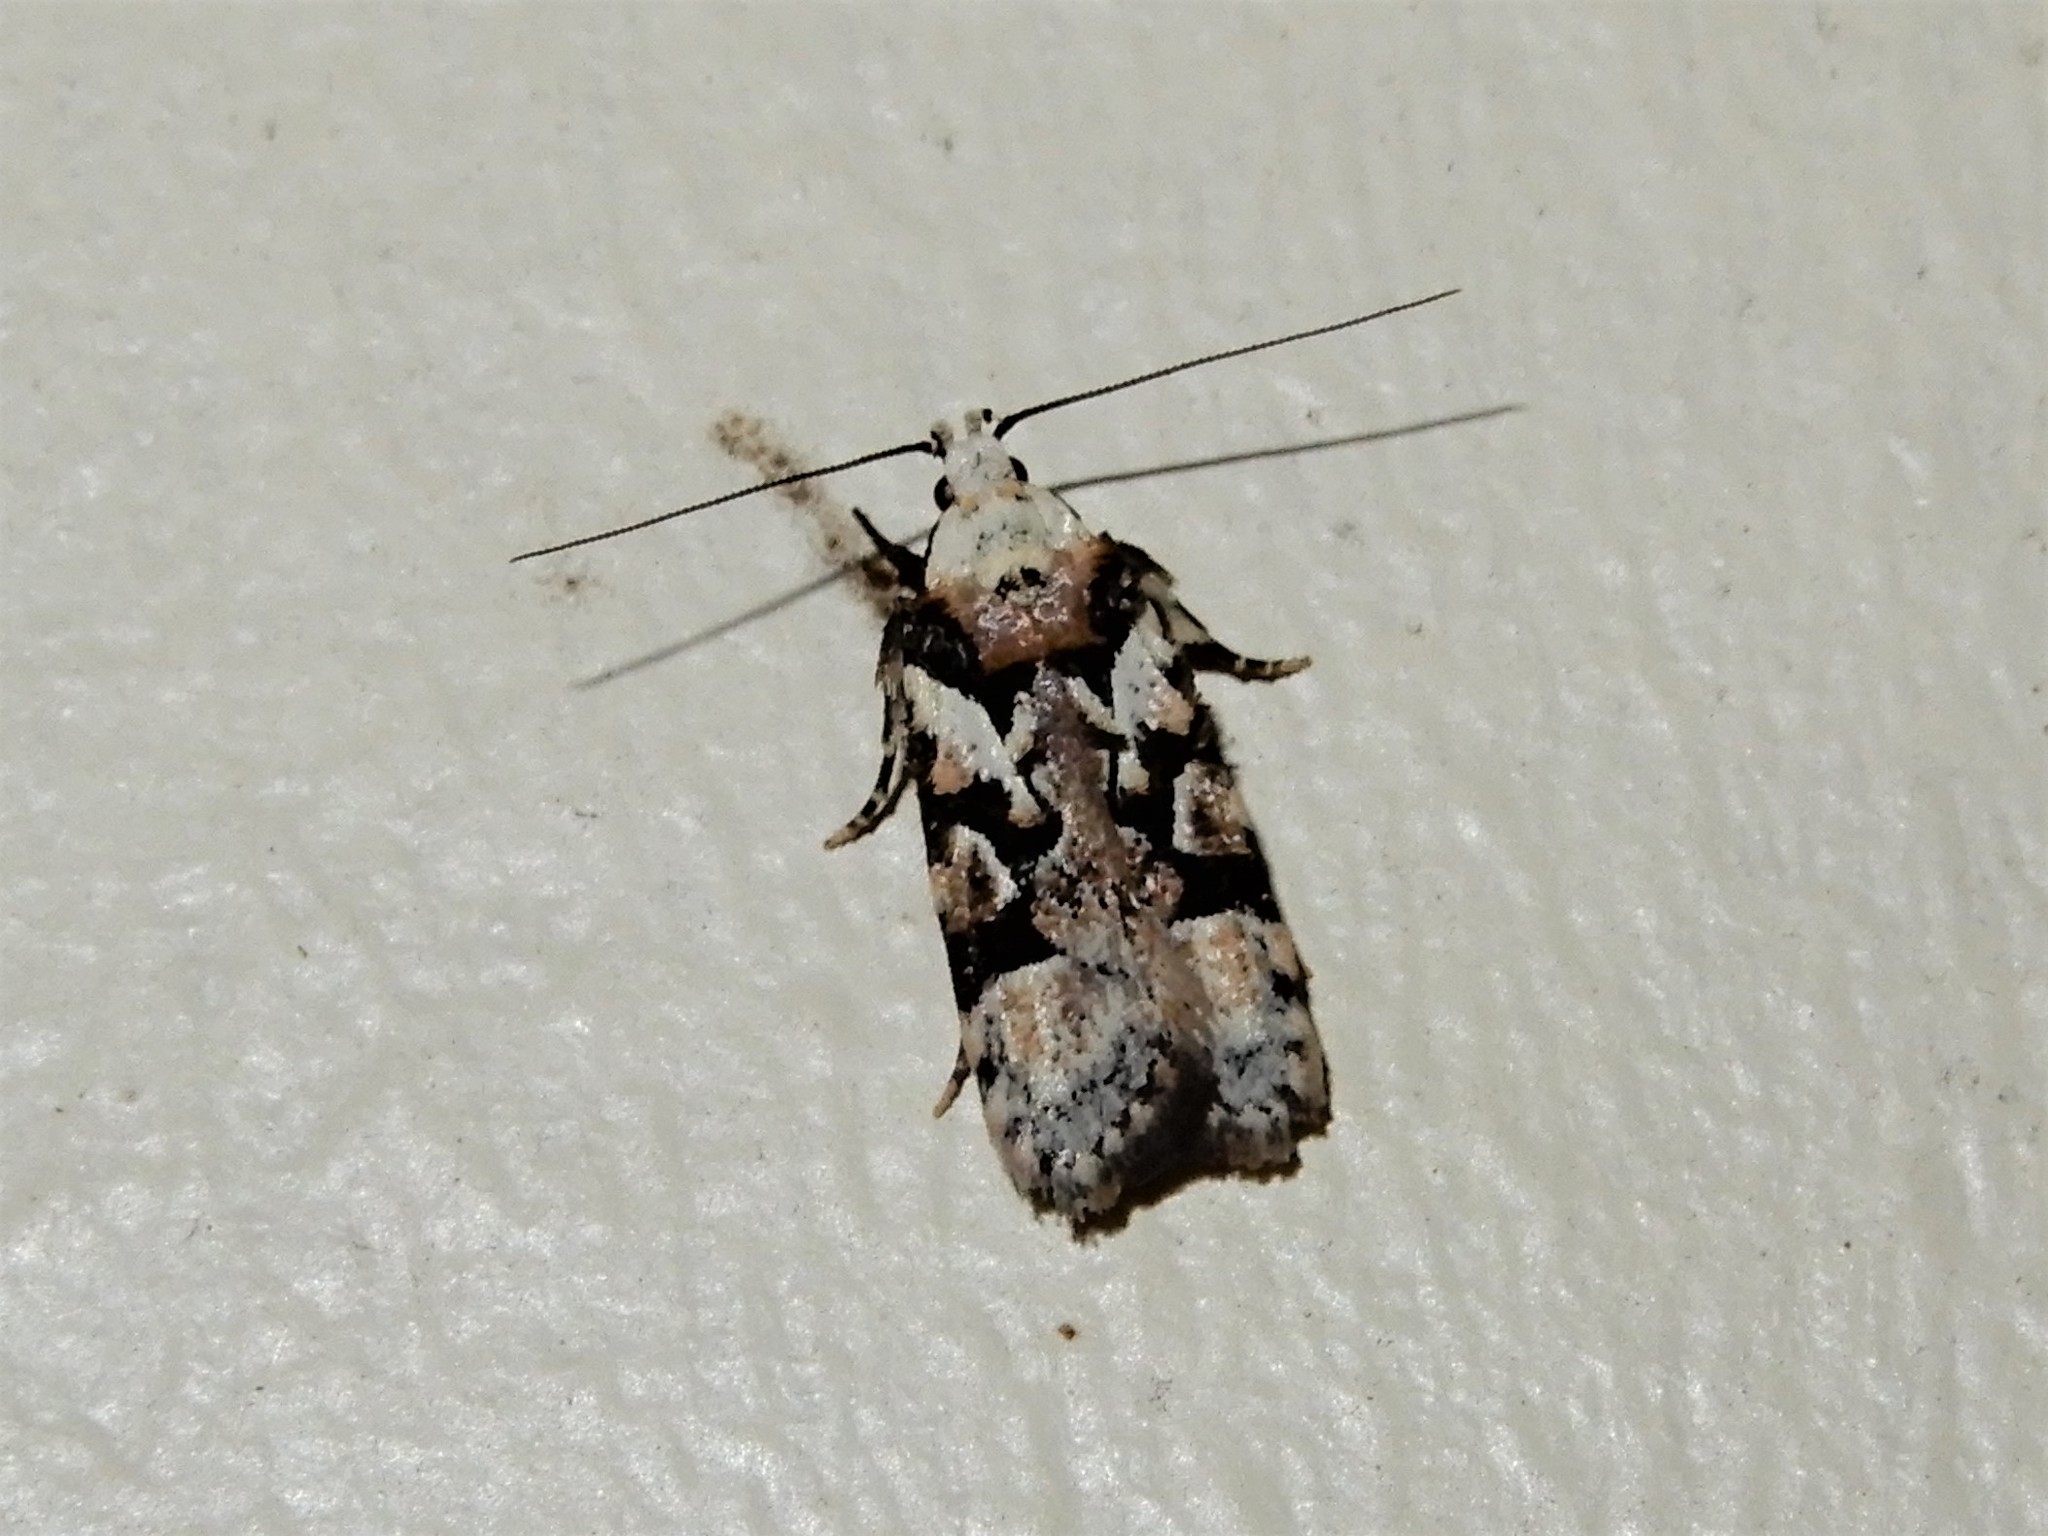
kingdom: Animalia
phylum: Arthropoda
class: Insecta
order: Lepidoptera
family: Oecophoridae
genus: Izatha
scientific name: Izatha epiphanes
